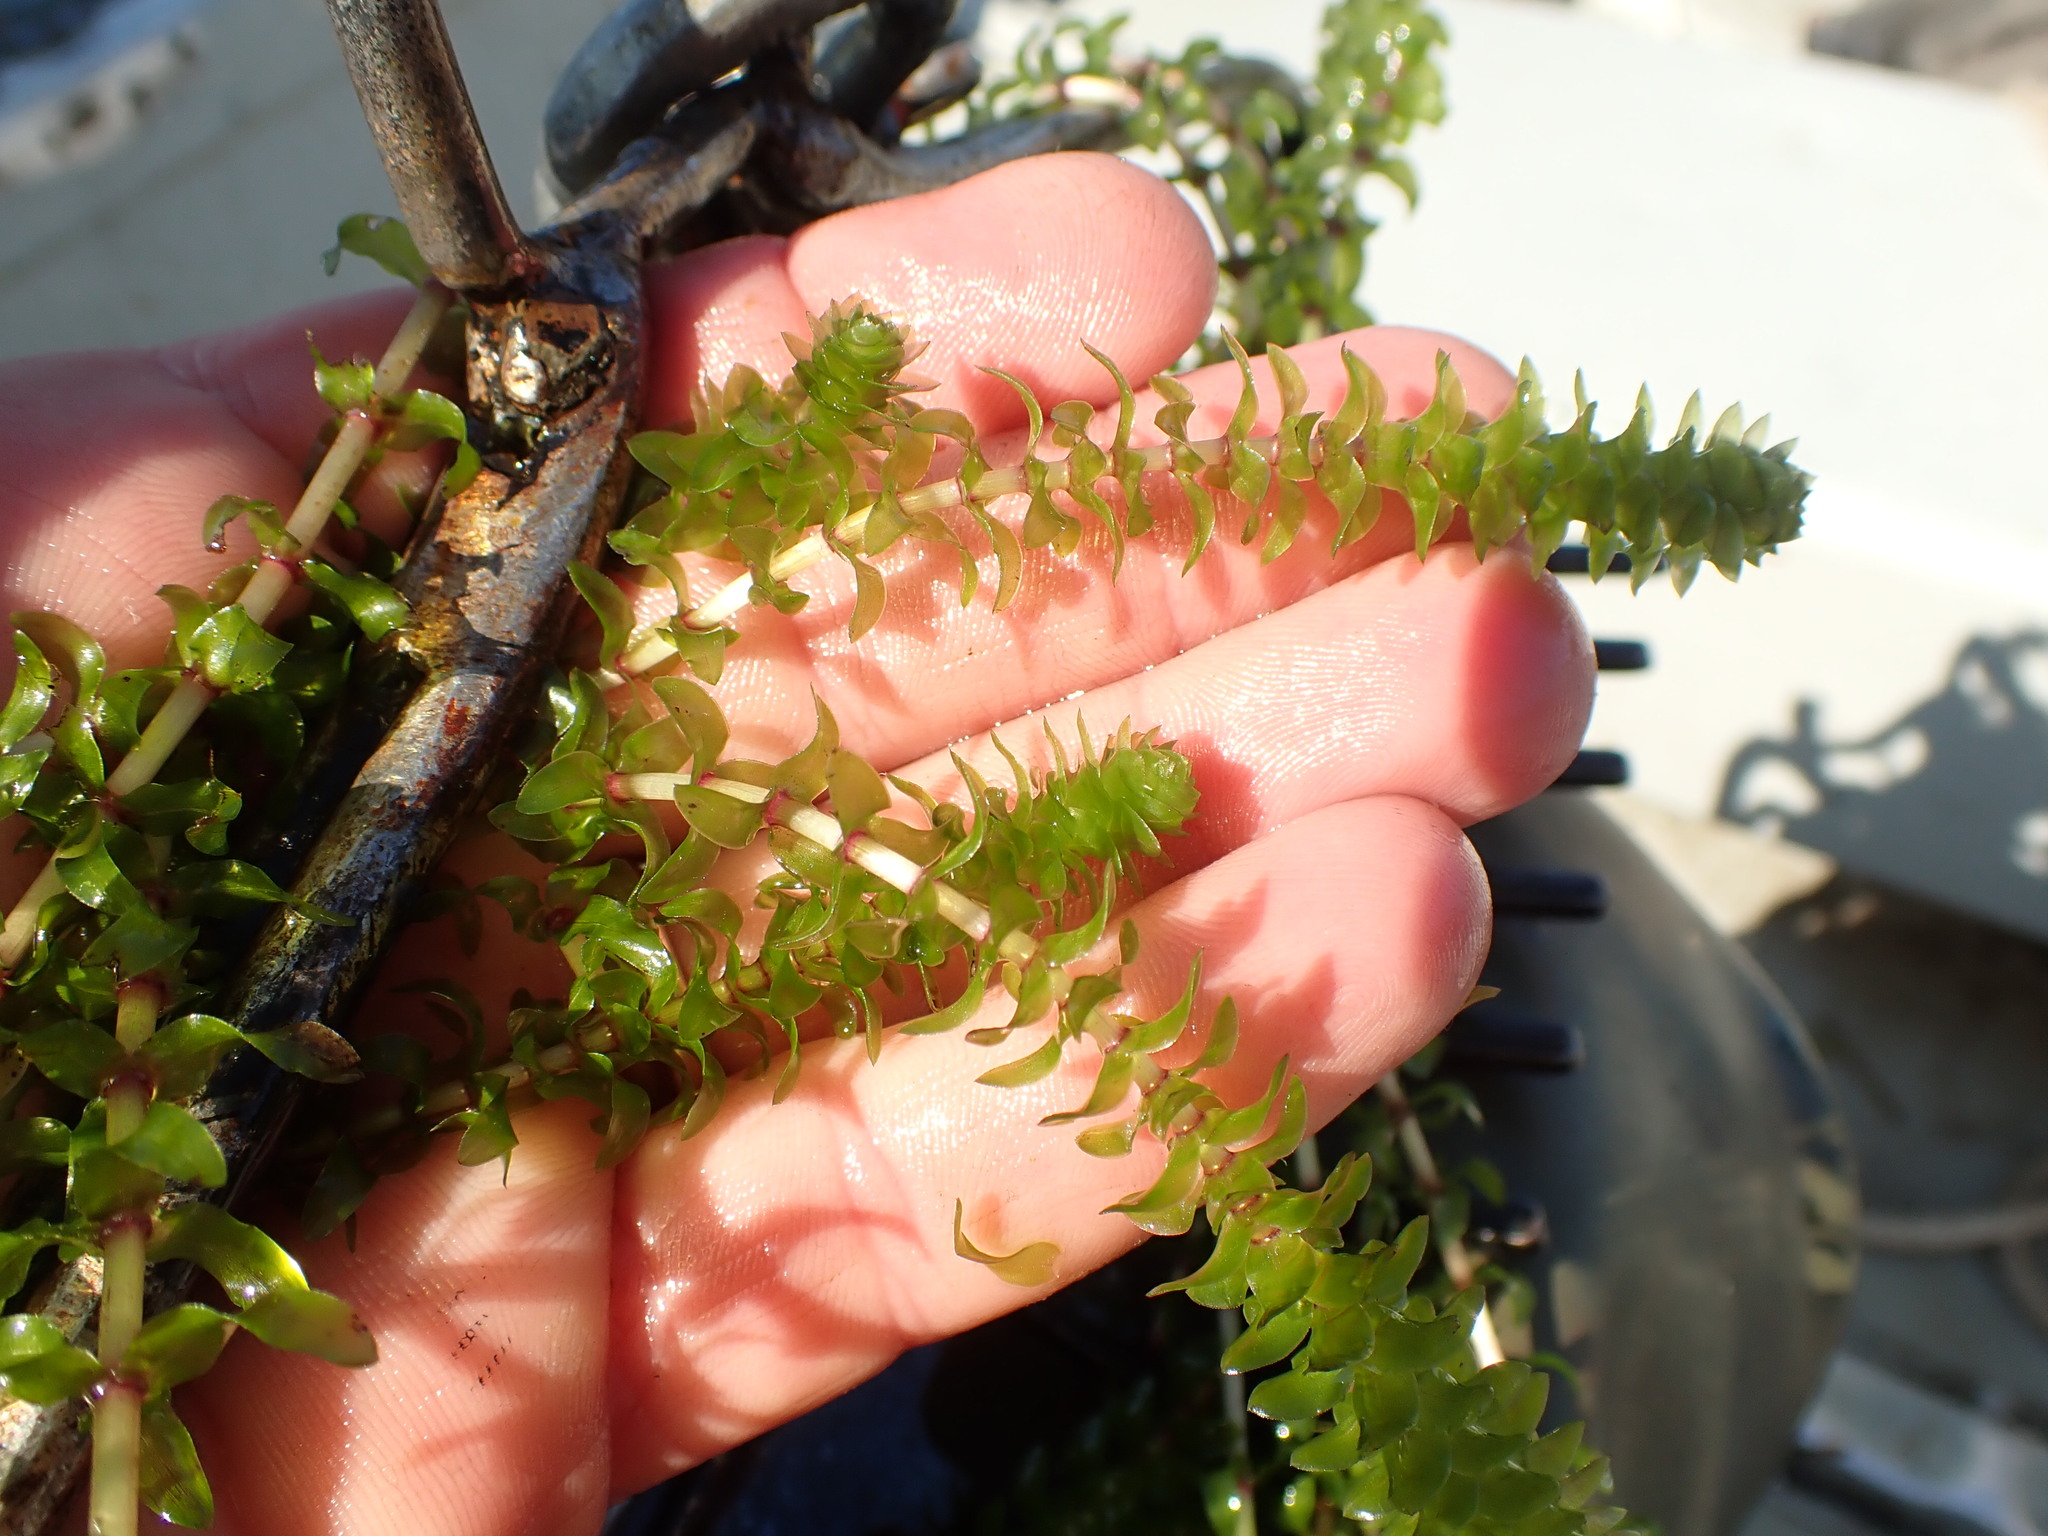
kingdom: Plantae
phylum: Tracheophyta
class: Liliopsida
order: Alismatales
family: Hydrocharitaceae
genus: Elodea
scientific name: Elodea canadensis
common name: Canadian waterweed
